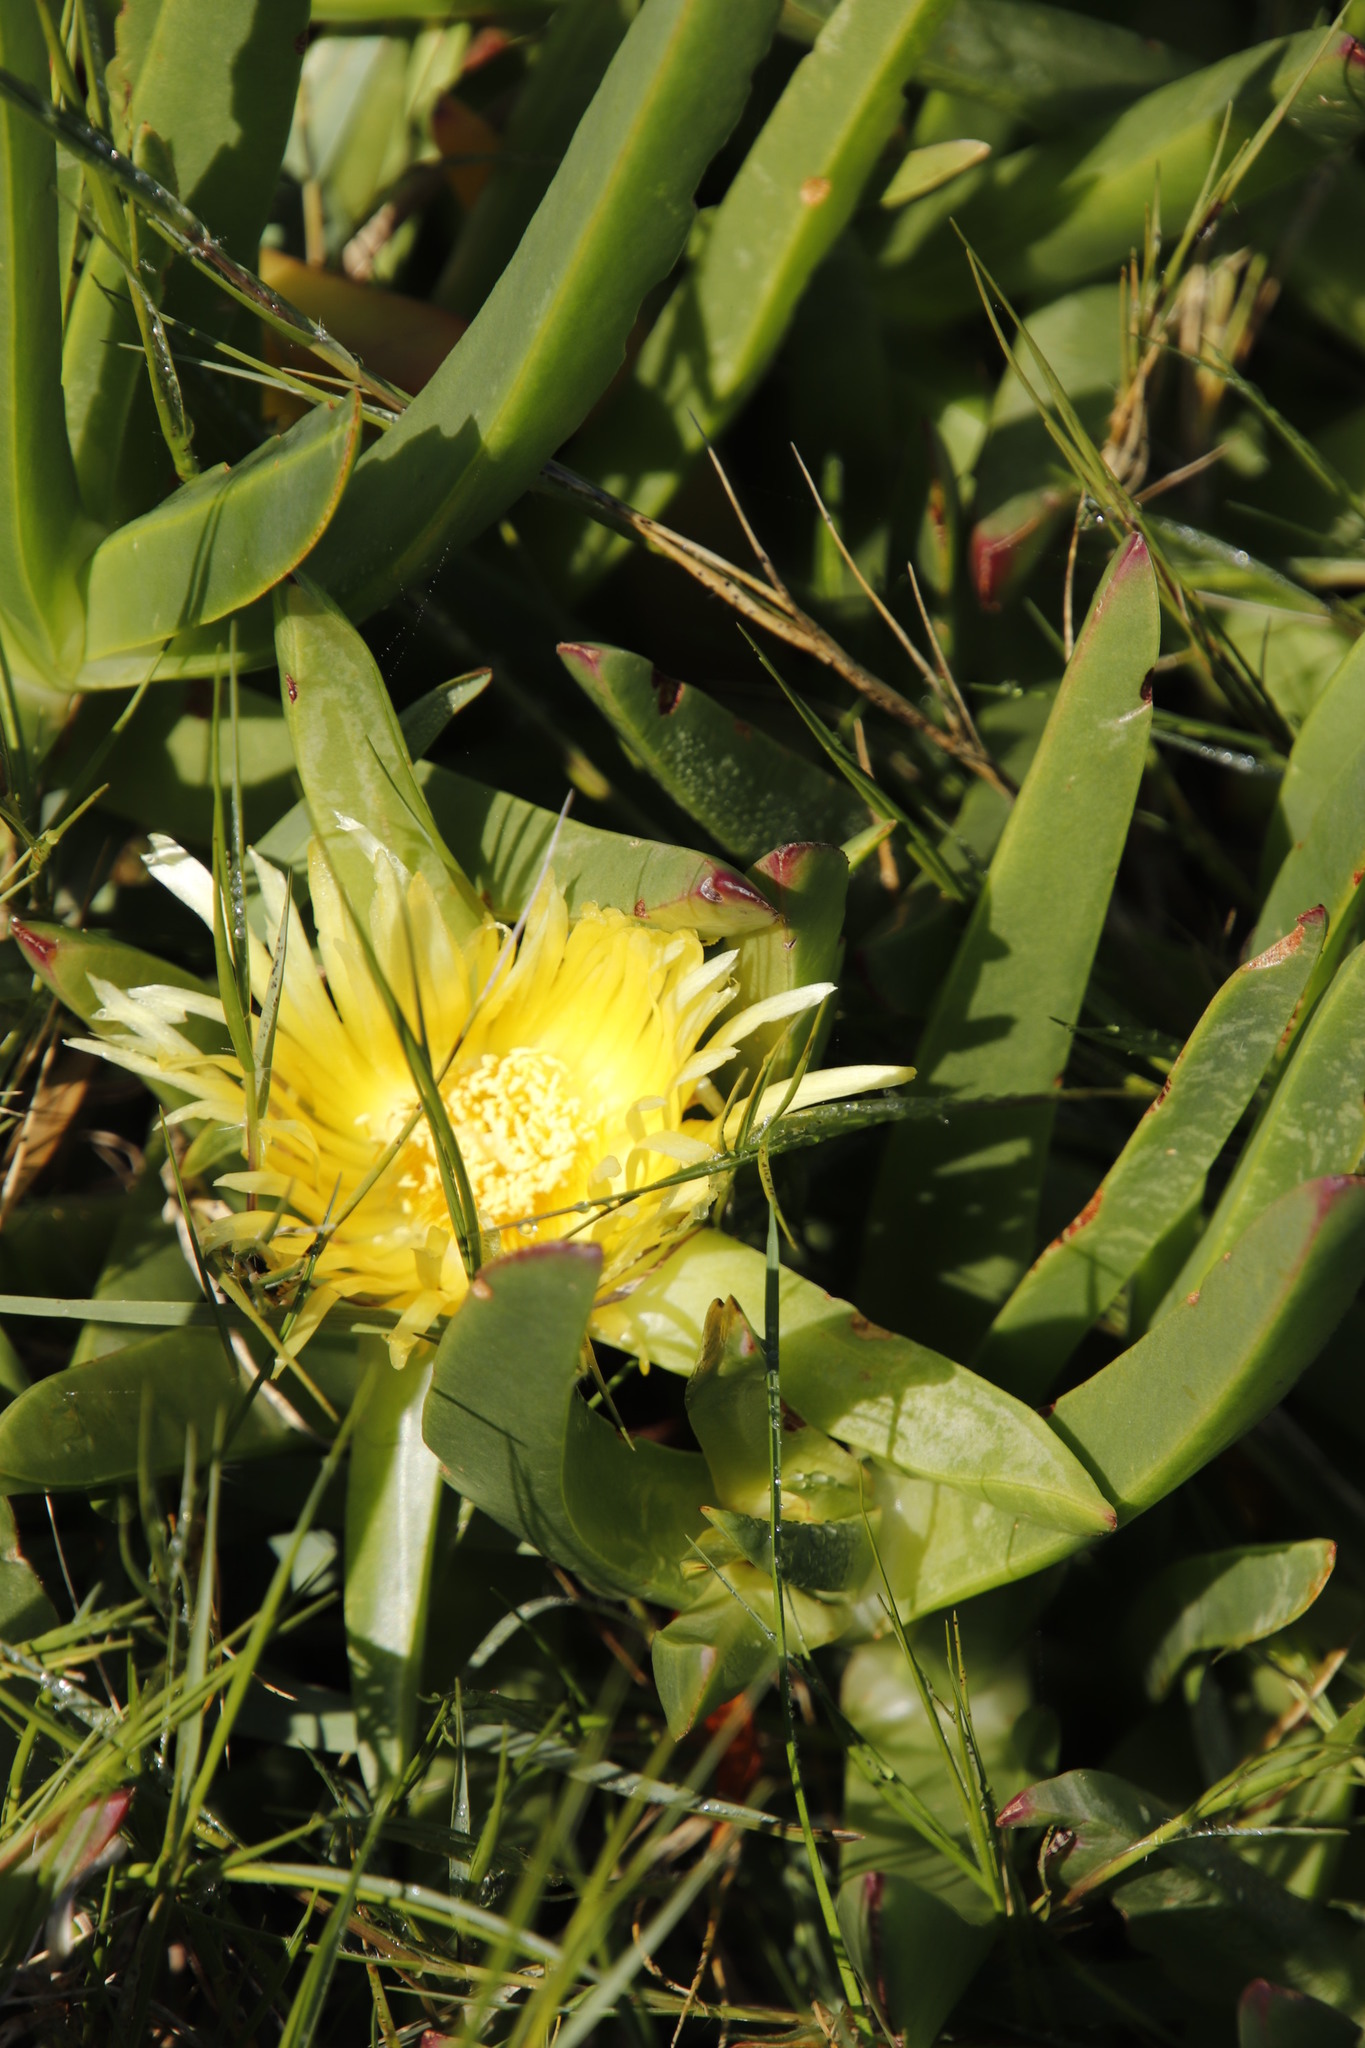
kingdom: Plantae
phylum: Tracheophyta
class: Magnoliopsida
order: Caryophyllales
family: Aizoaceae
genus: Carpobrotus
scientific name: Carpobrotus edulis
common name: Hottentot-fig
